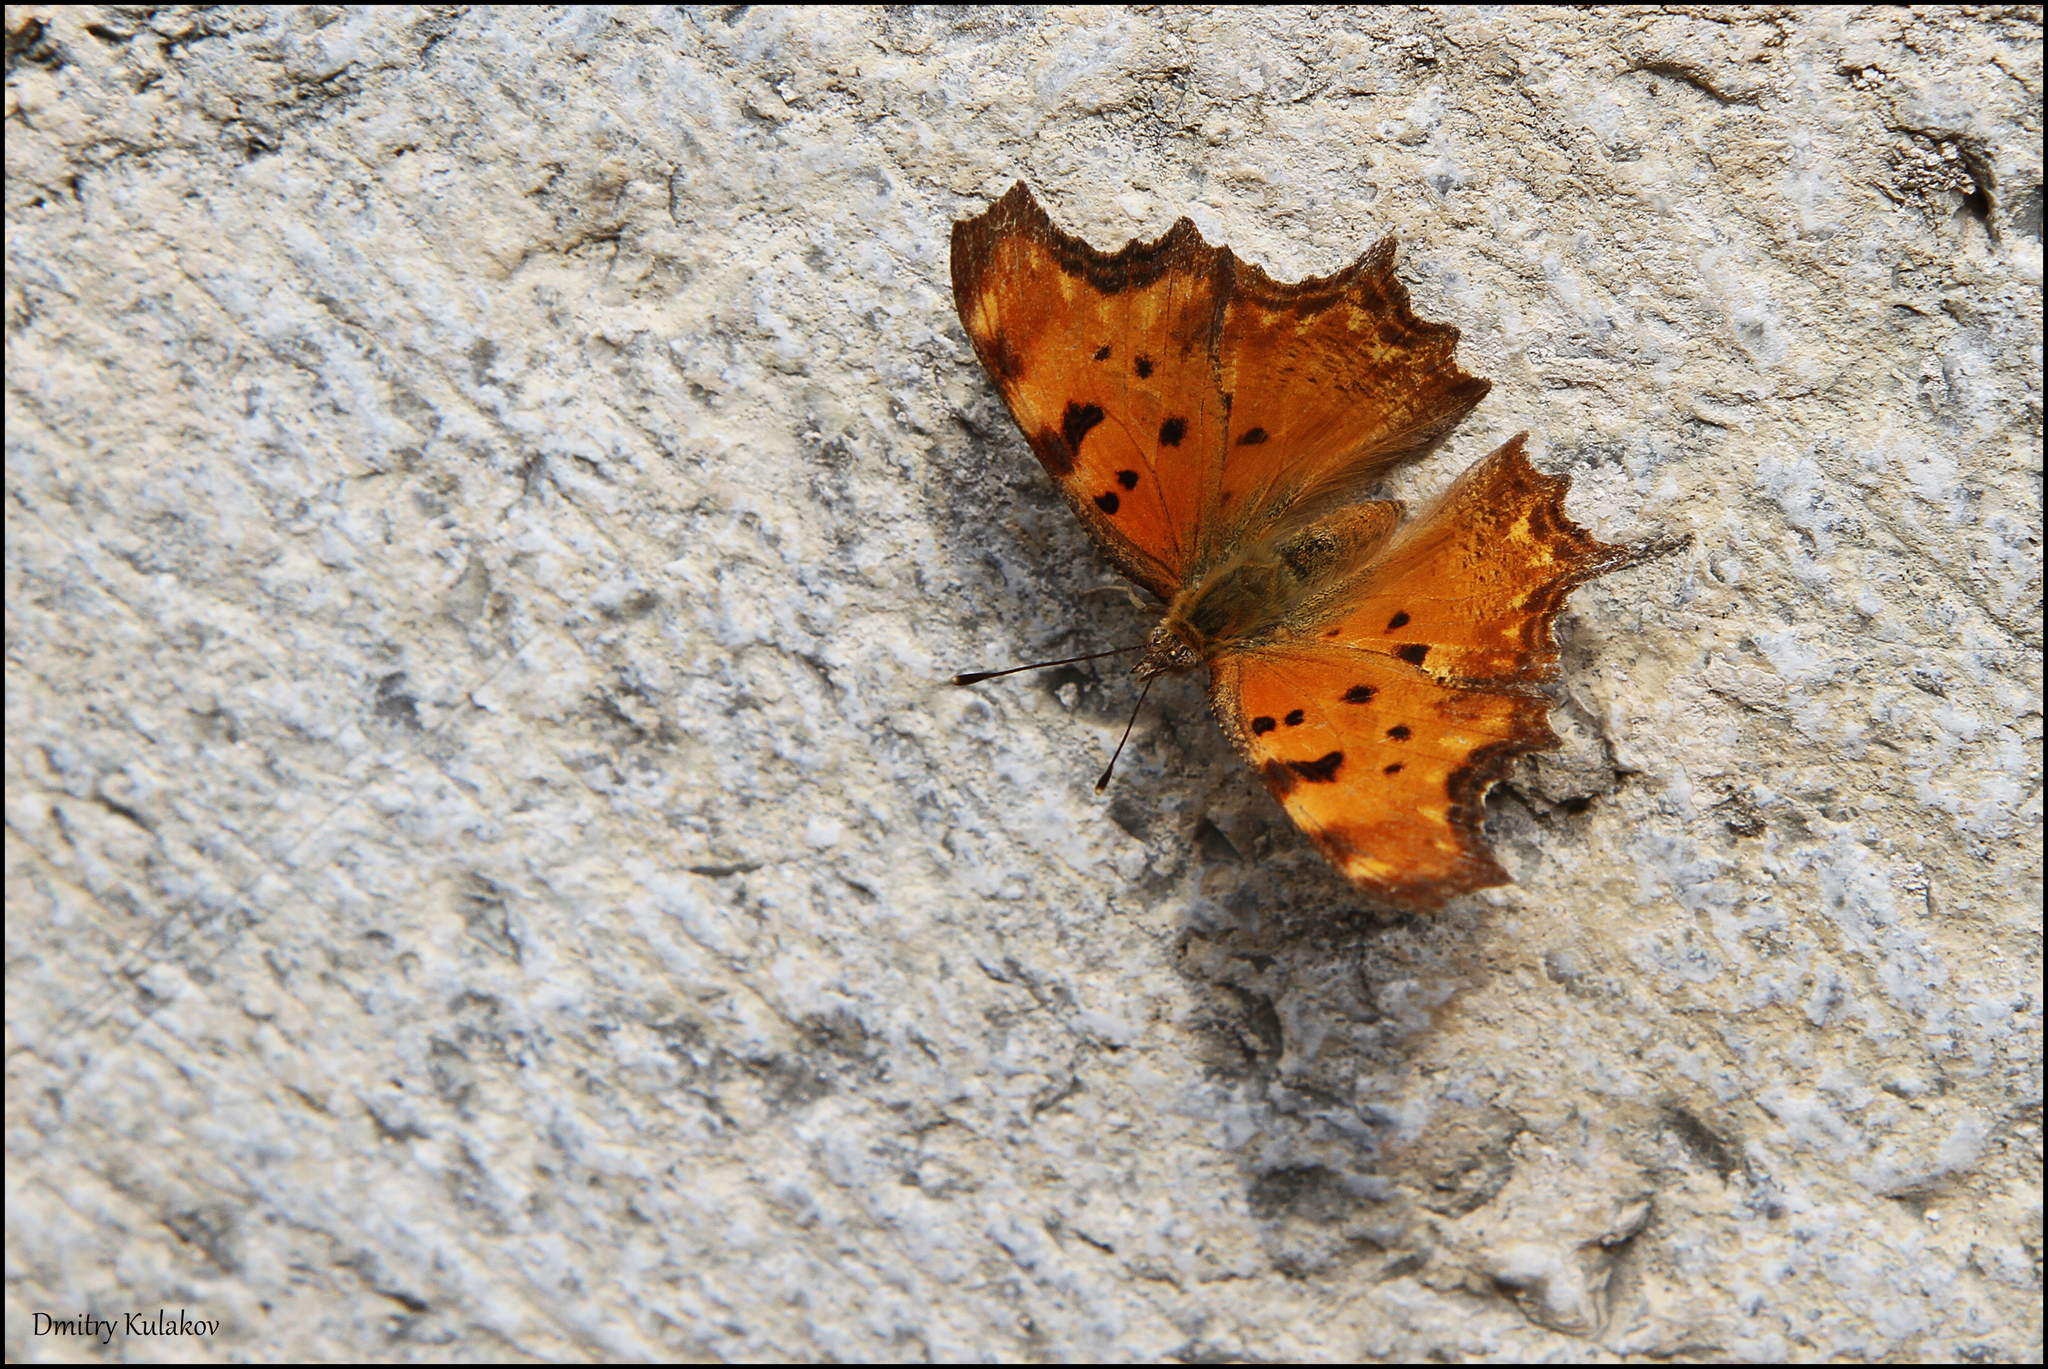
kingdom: Animalia
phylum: Arthropoda
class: Insecta
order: Lepidoptera
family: Nymphalidae
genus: Polygonia
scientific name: Polygonia egea
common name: Southern comma
